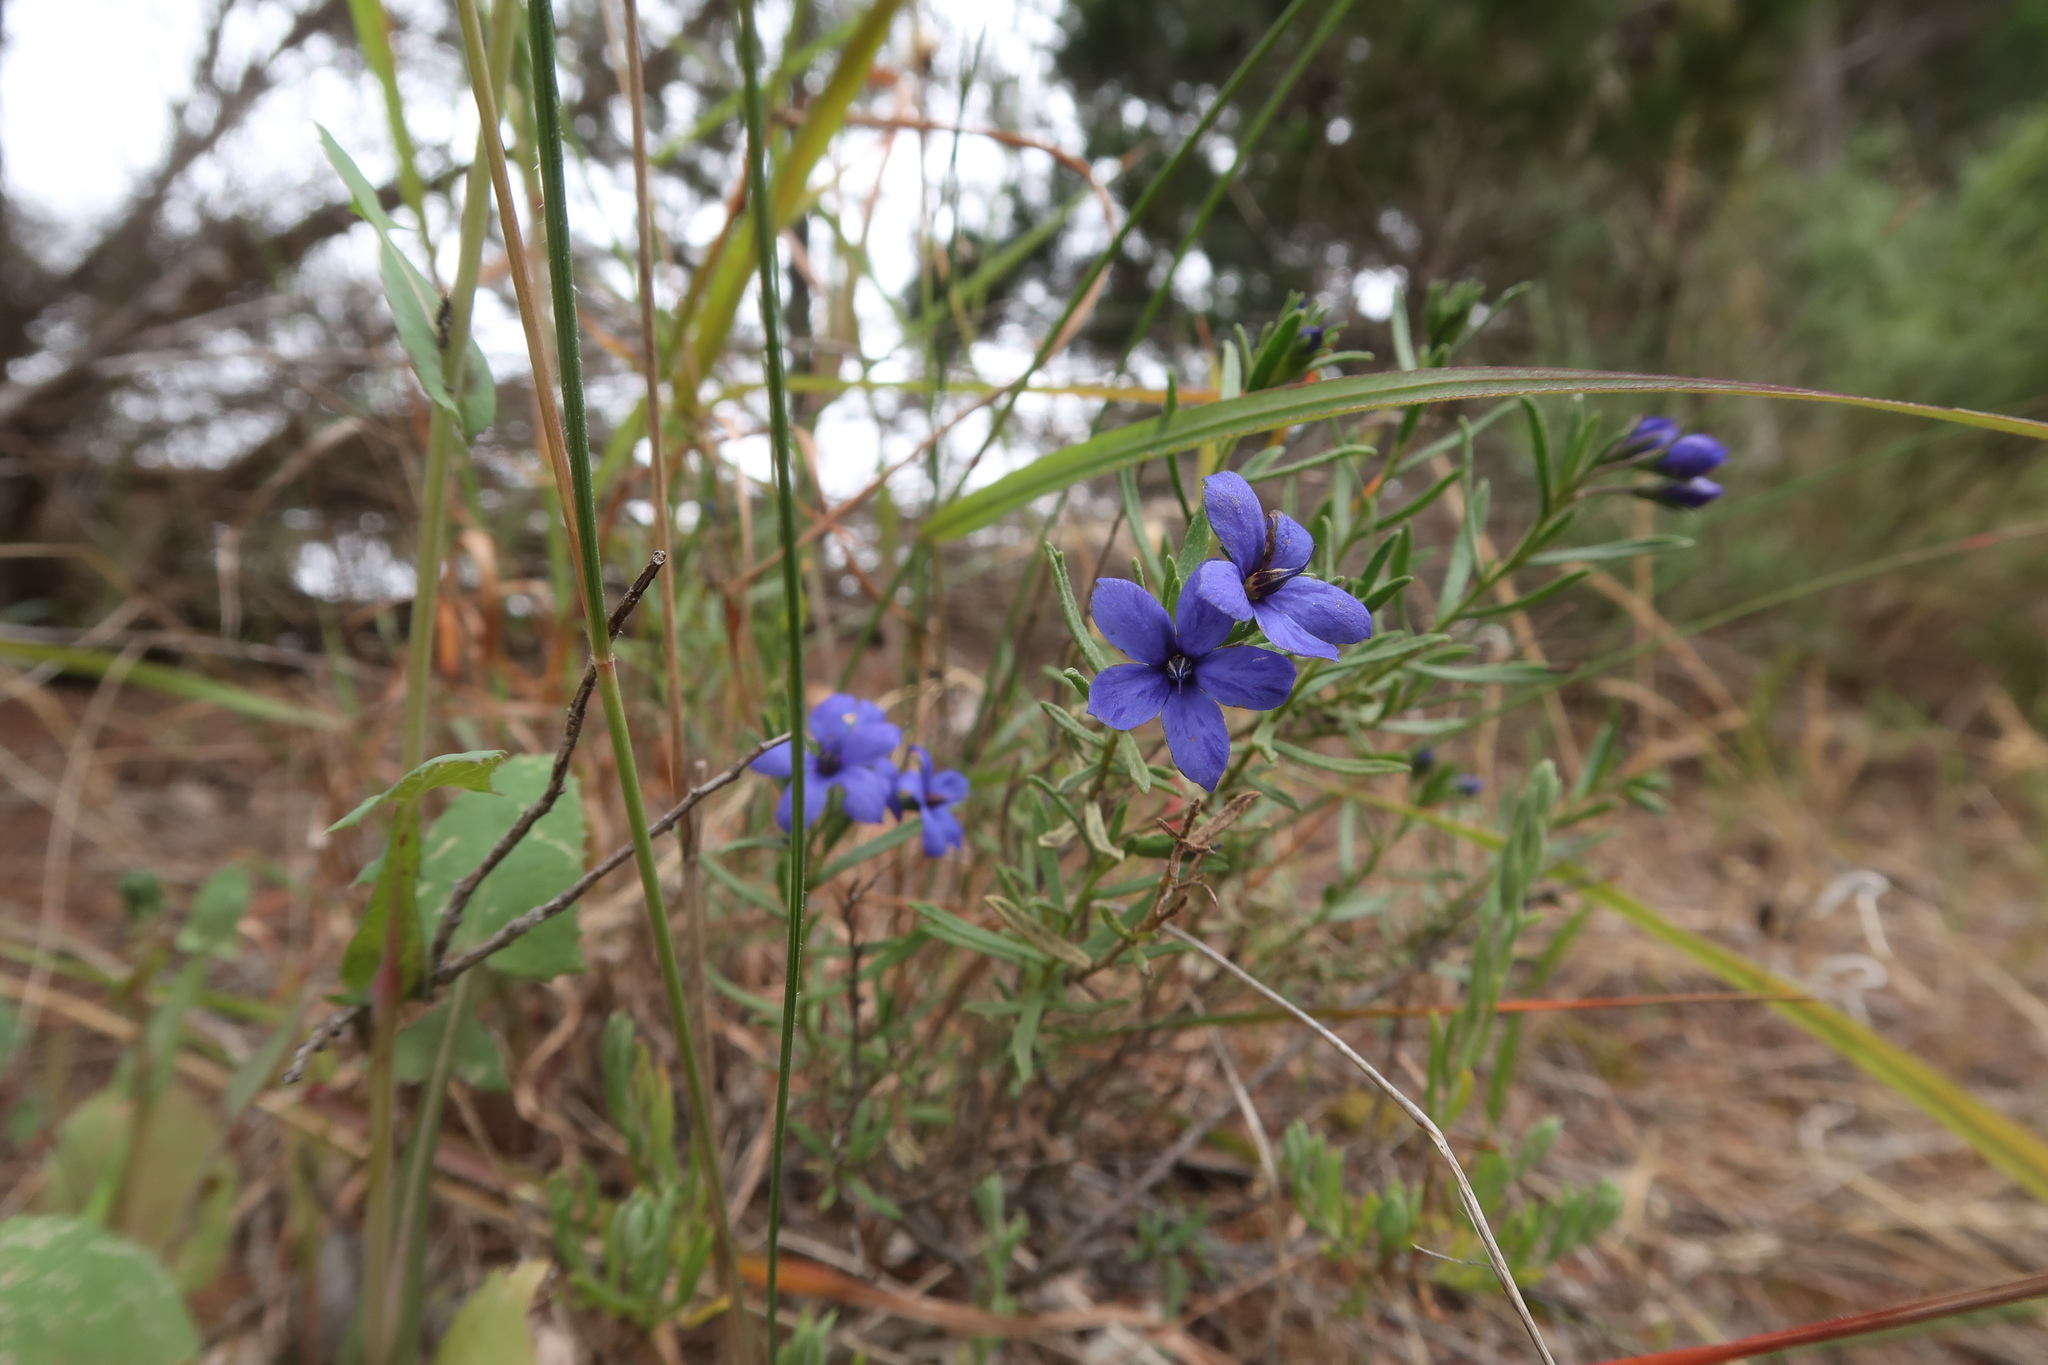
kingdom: Plantae
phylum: Tracheophyta
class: Magnoliopsida
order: Boraginales
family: Ehretiaceae
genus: Halgania
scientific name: Halgania cyanea
